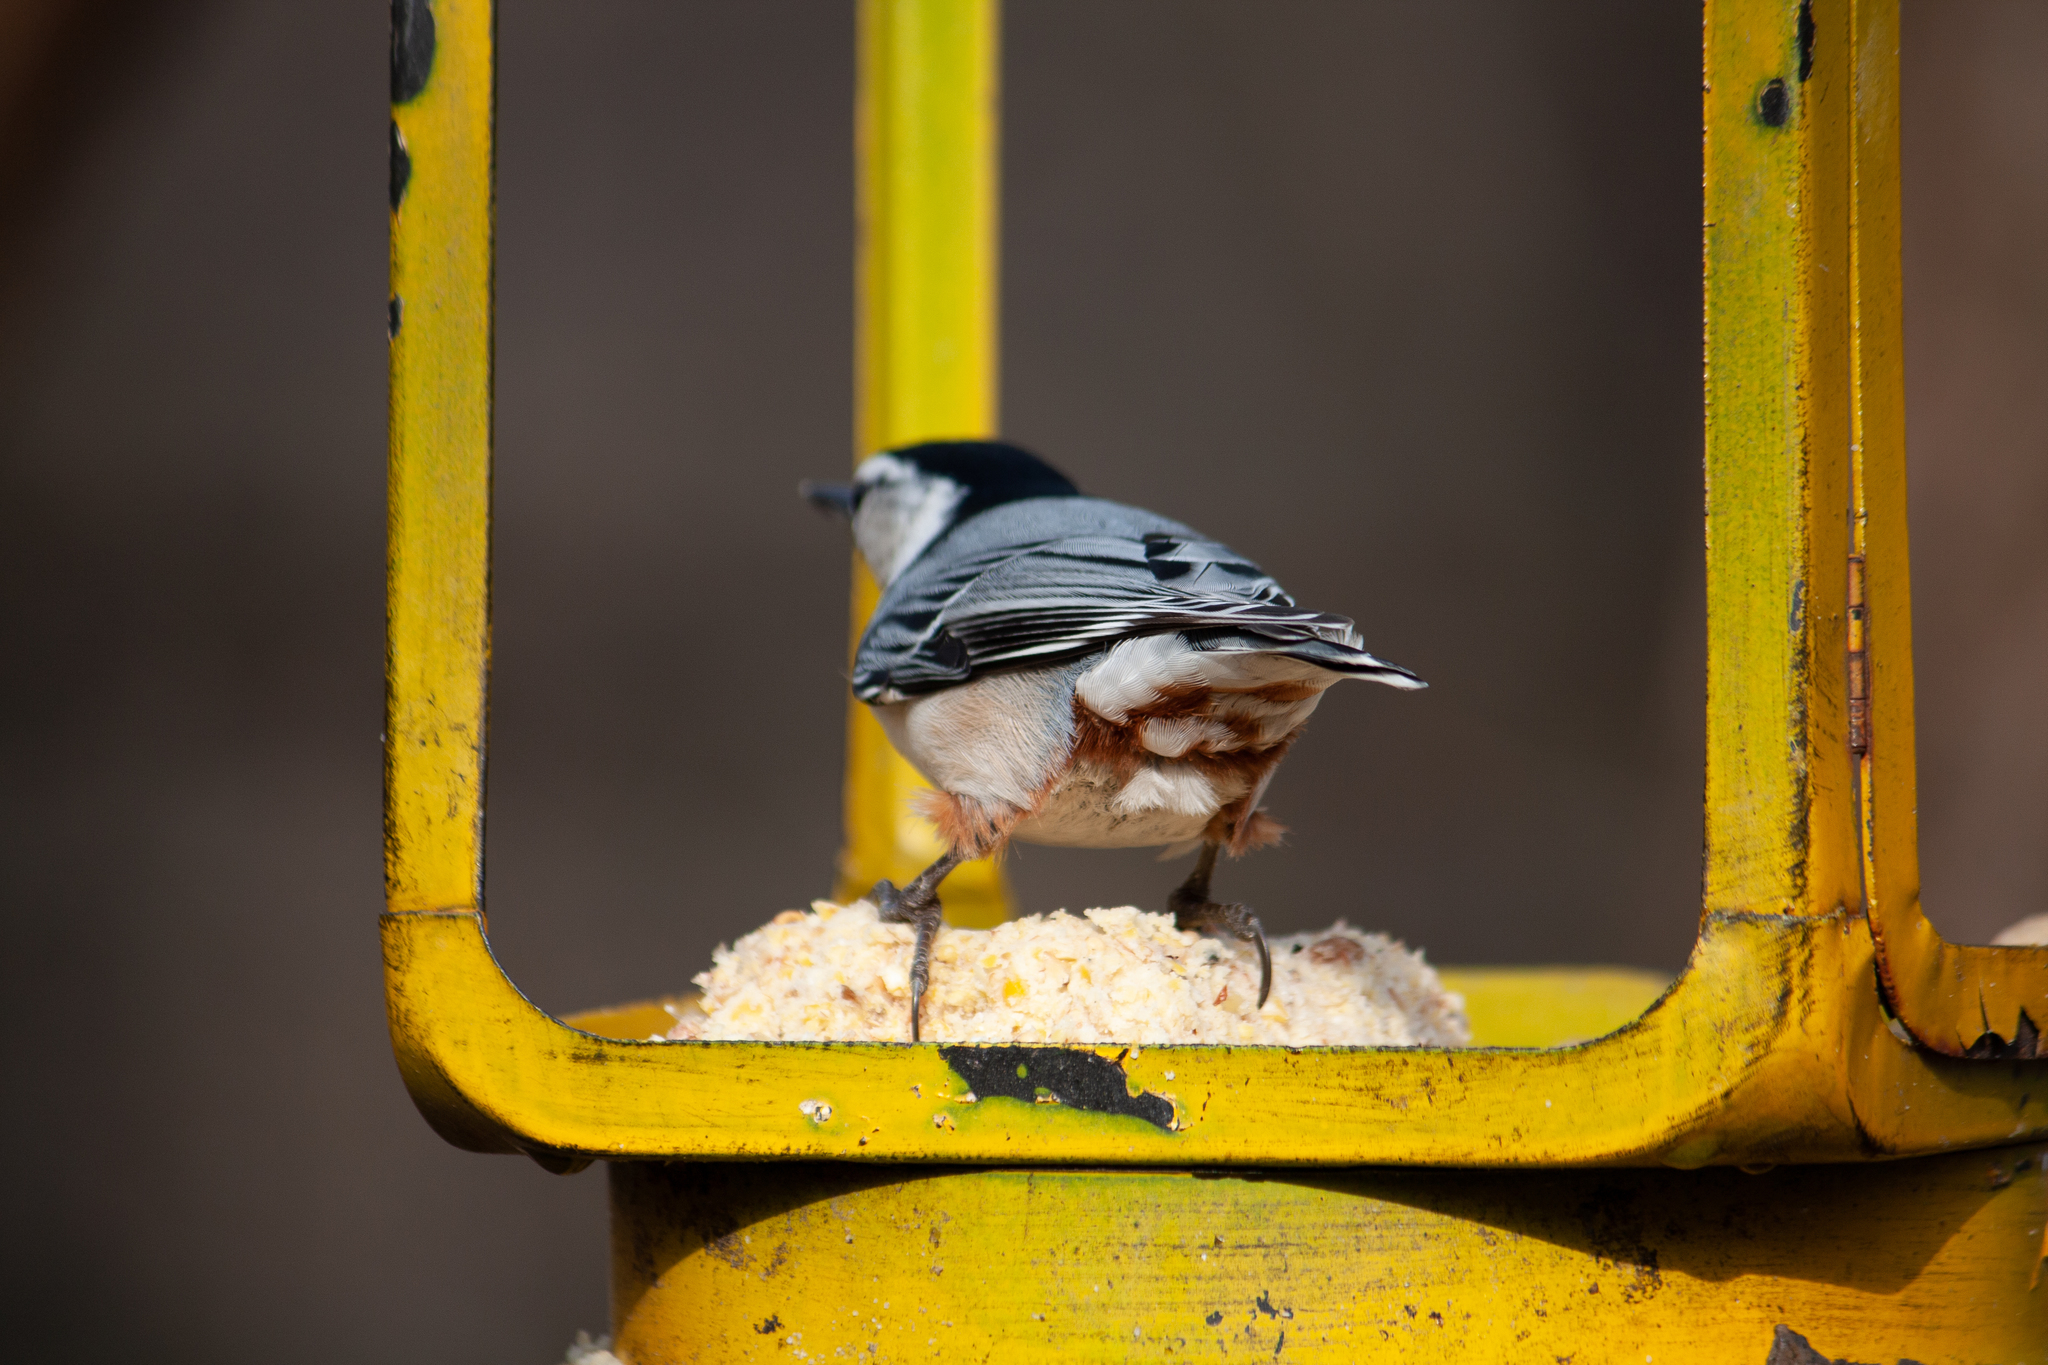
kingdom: Animalia
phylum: Chordata
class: Aves
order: Passeriformes
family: Sittidae
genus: Sitta
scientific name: Sitta carolinensis
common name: White-breasted nuthatch
